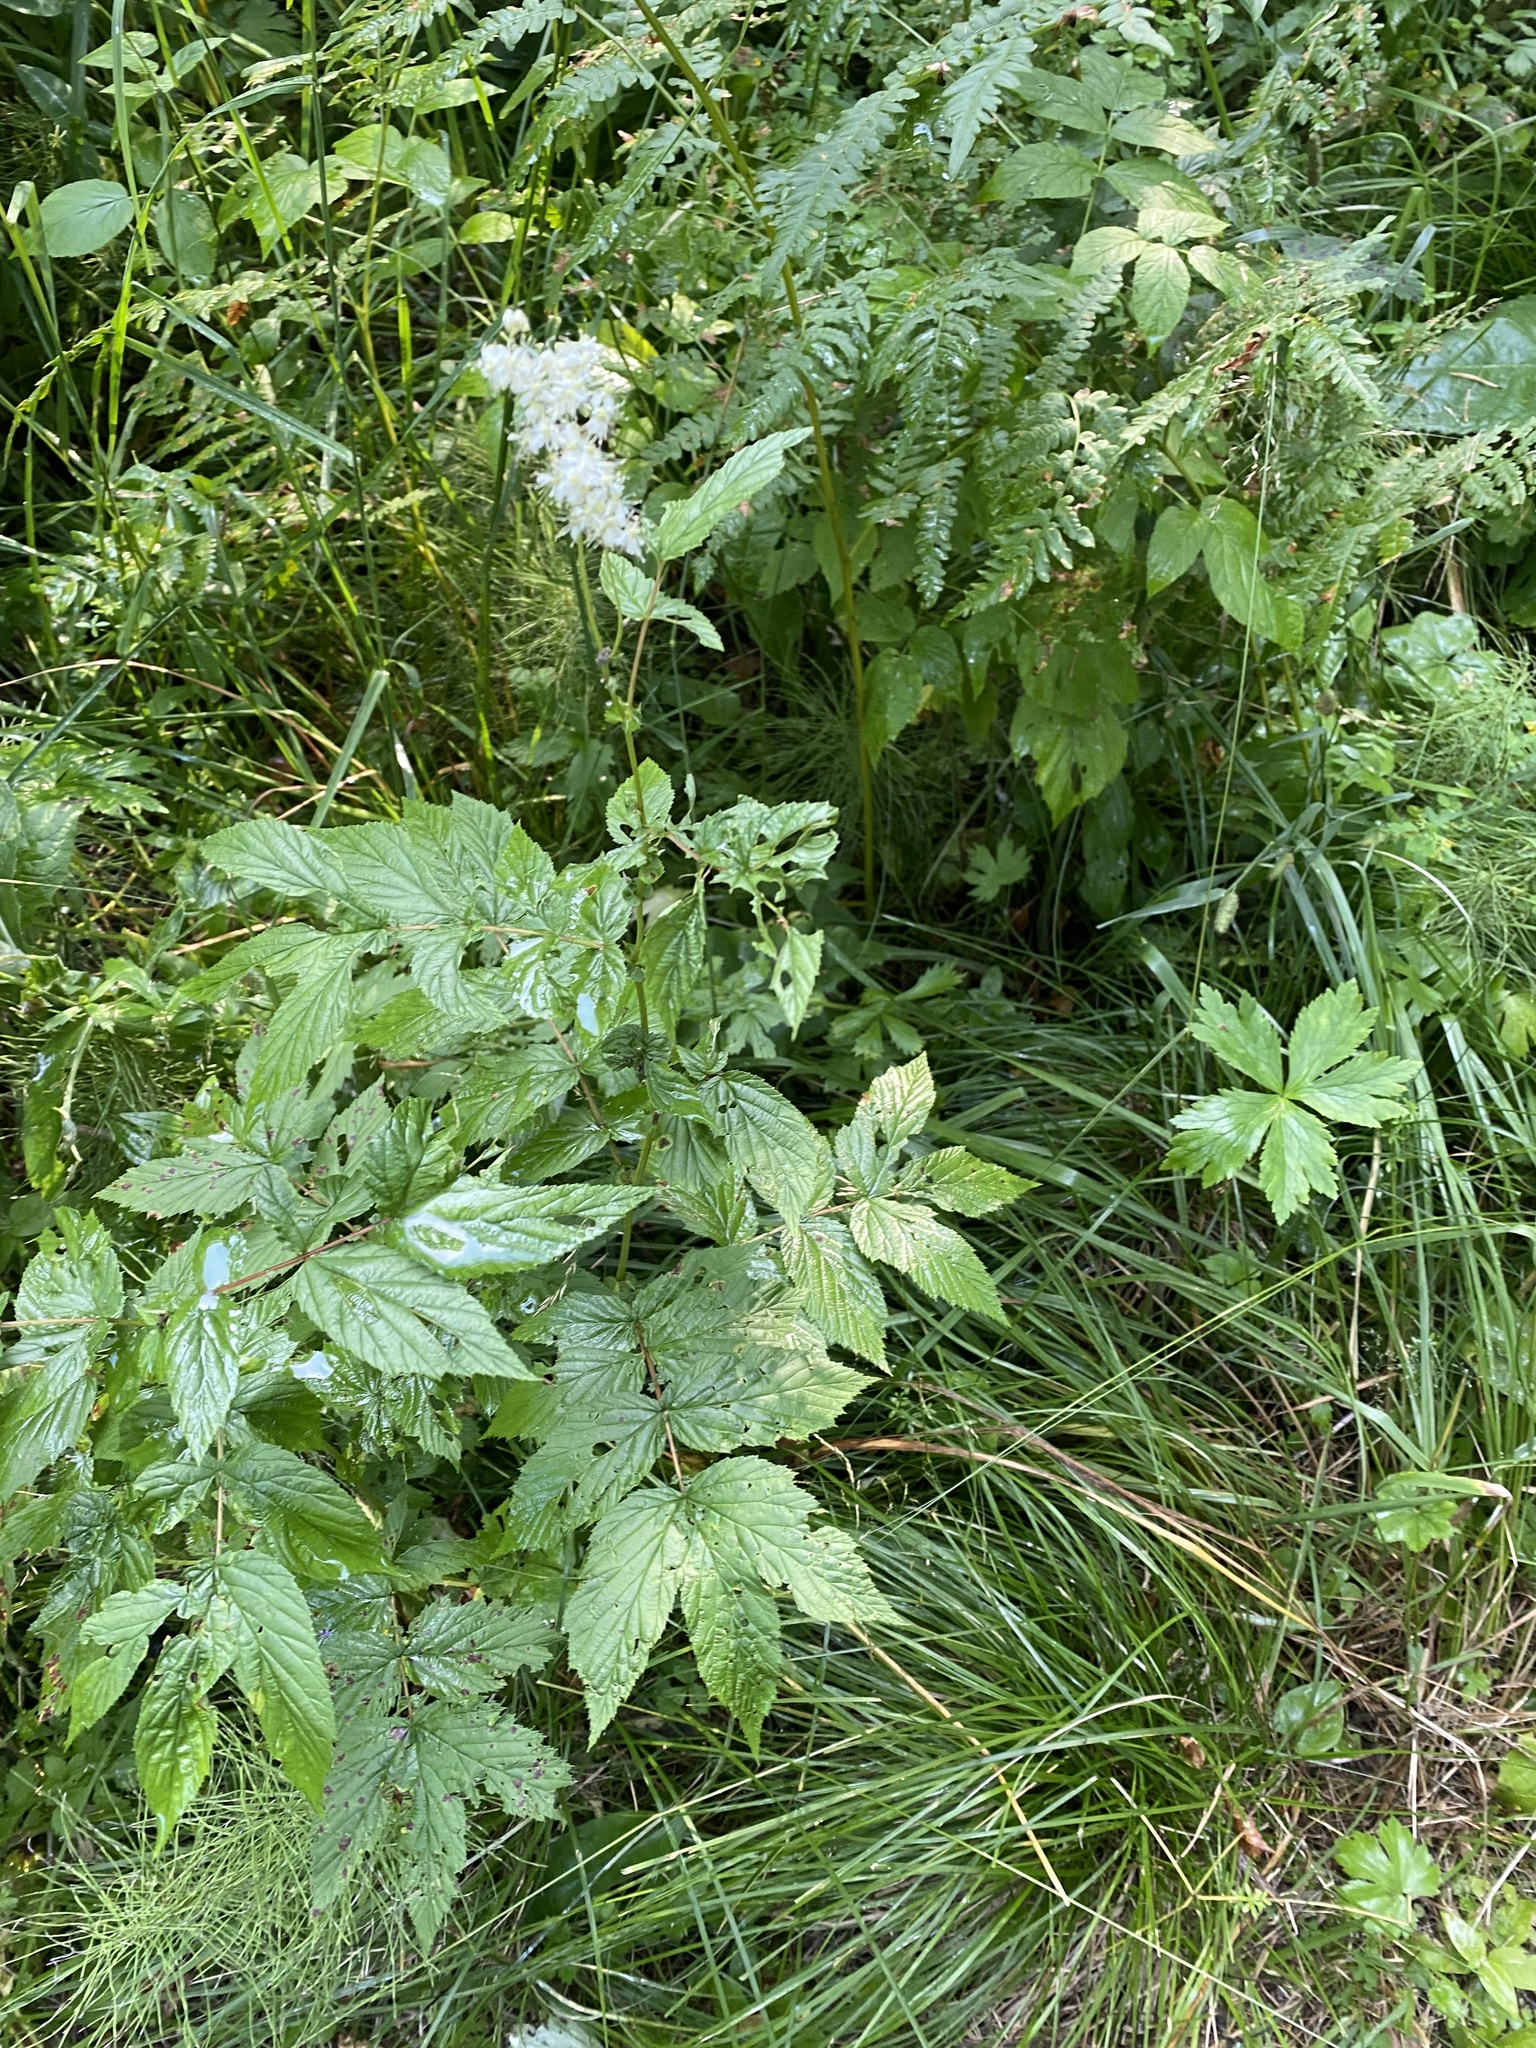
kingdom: Plantae
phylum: Tracheophyta
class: Magnoliopsida
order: Rosales
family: Rosaceae
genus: Filipendula
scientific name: Filipendula ulmaria
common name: Meadowsweet
